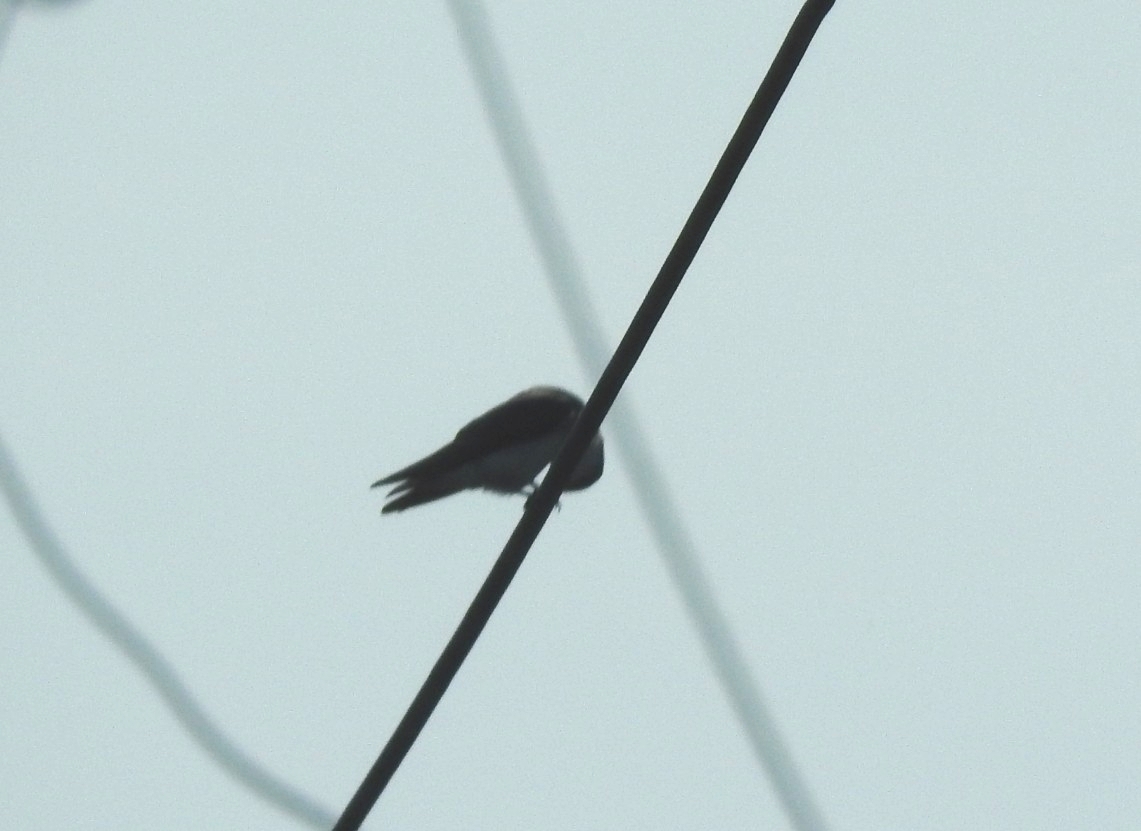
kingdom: Animalia
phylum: Chordata
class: Aves
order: Passeriformes
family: Hirundinidae
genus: Tachycineta
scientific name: Tachycineta albilinea
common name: Mangrove swallow
